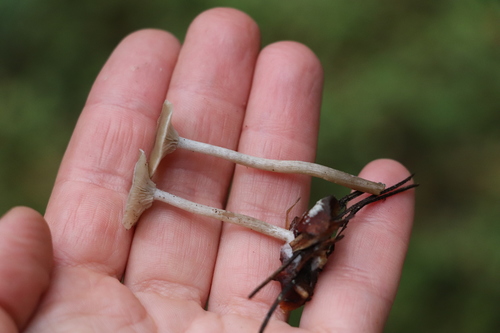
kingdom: Fungi
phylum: Basidiomycota
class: Agaricomycetes
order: Agaricales
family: Tricholomataceae
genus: Clitocybe
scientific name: Clitocybe
